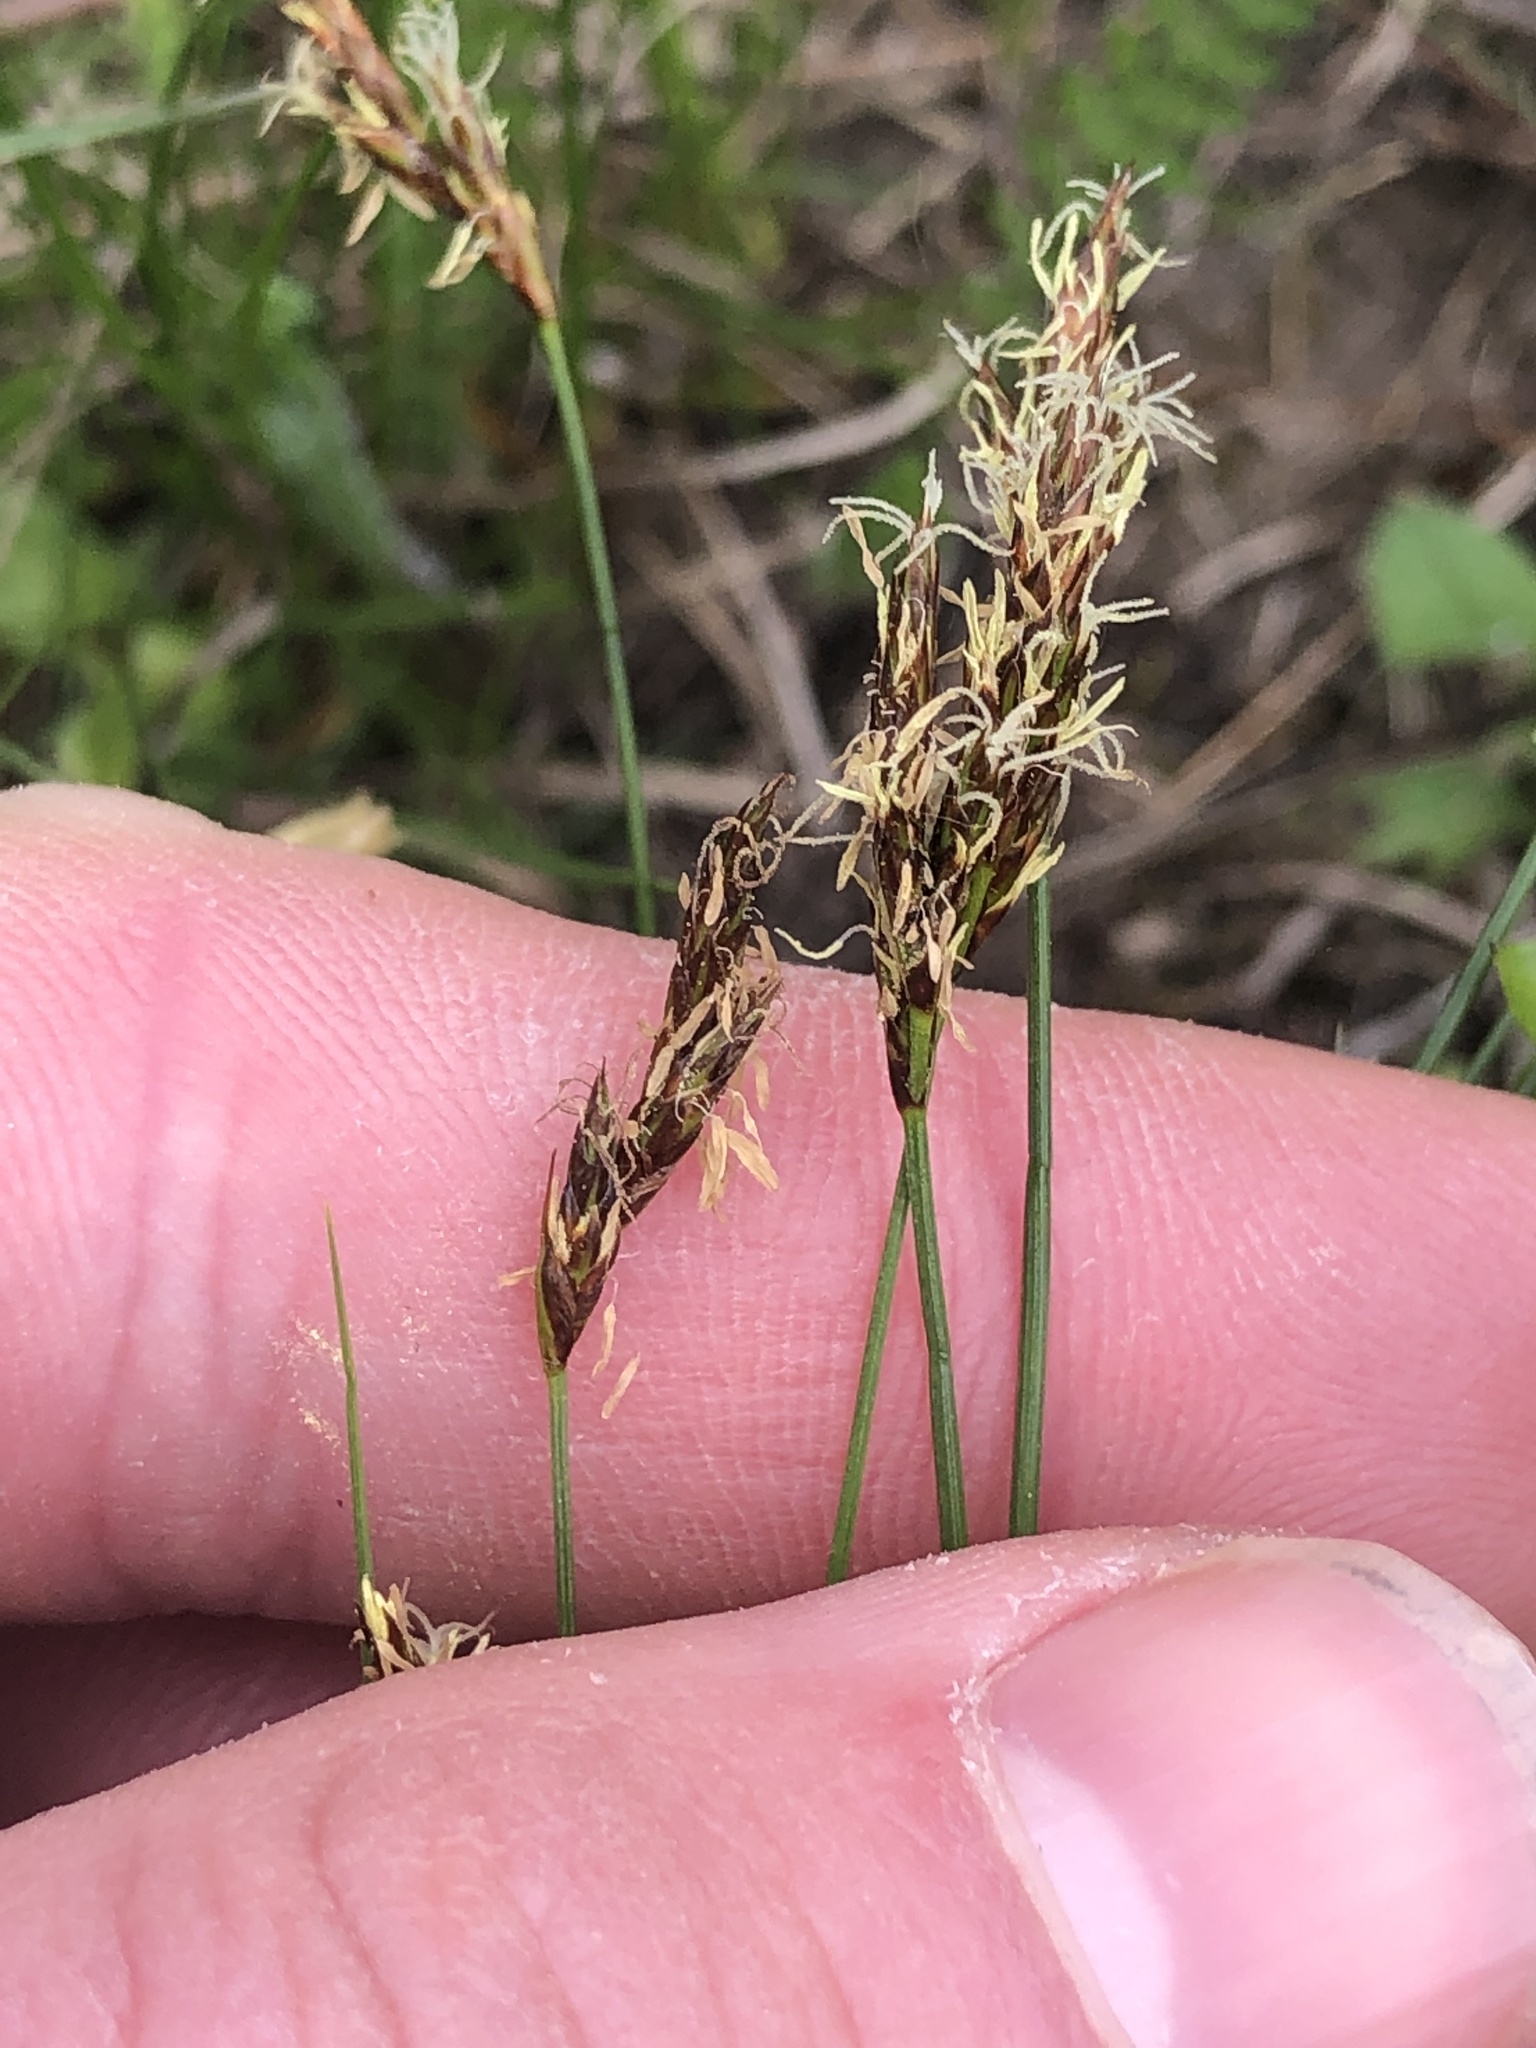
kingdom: Plantae
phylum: Tracheophyta
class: Liliopsida
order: Poales
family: Cyperaceae
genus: Carex
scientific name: Carex praecox
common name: Early sedge
